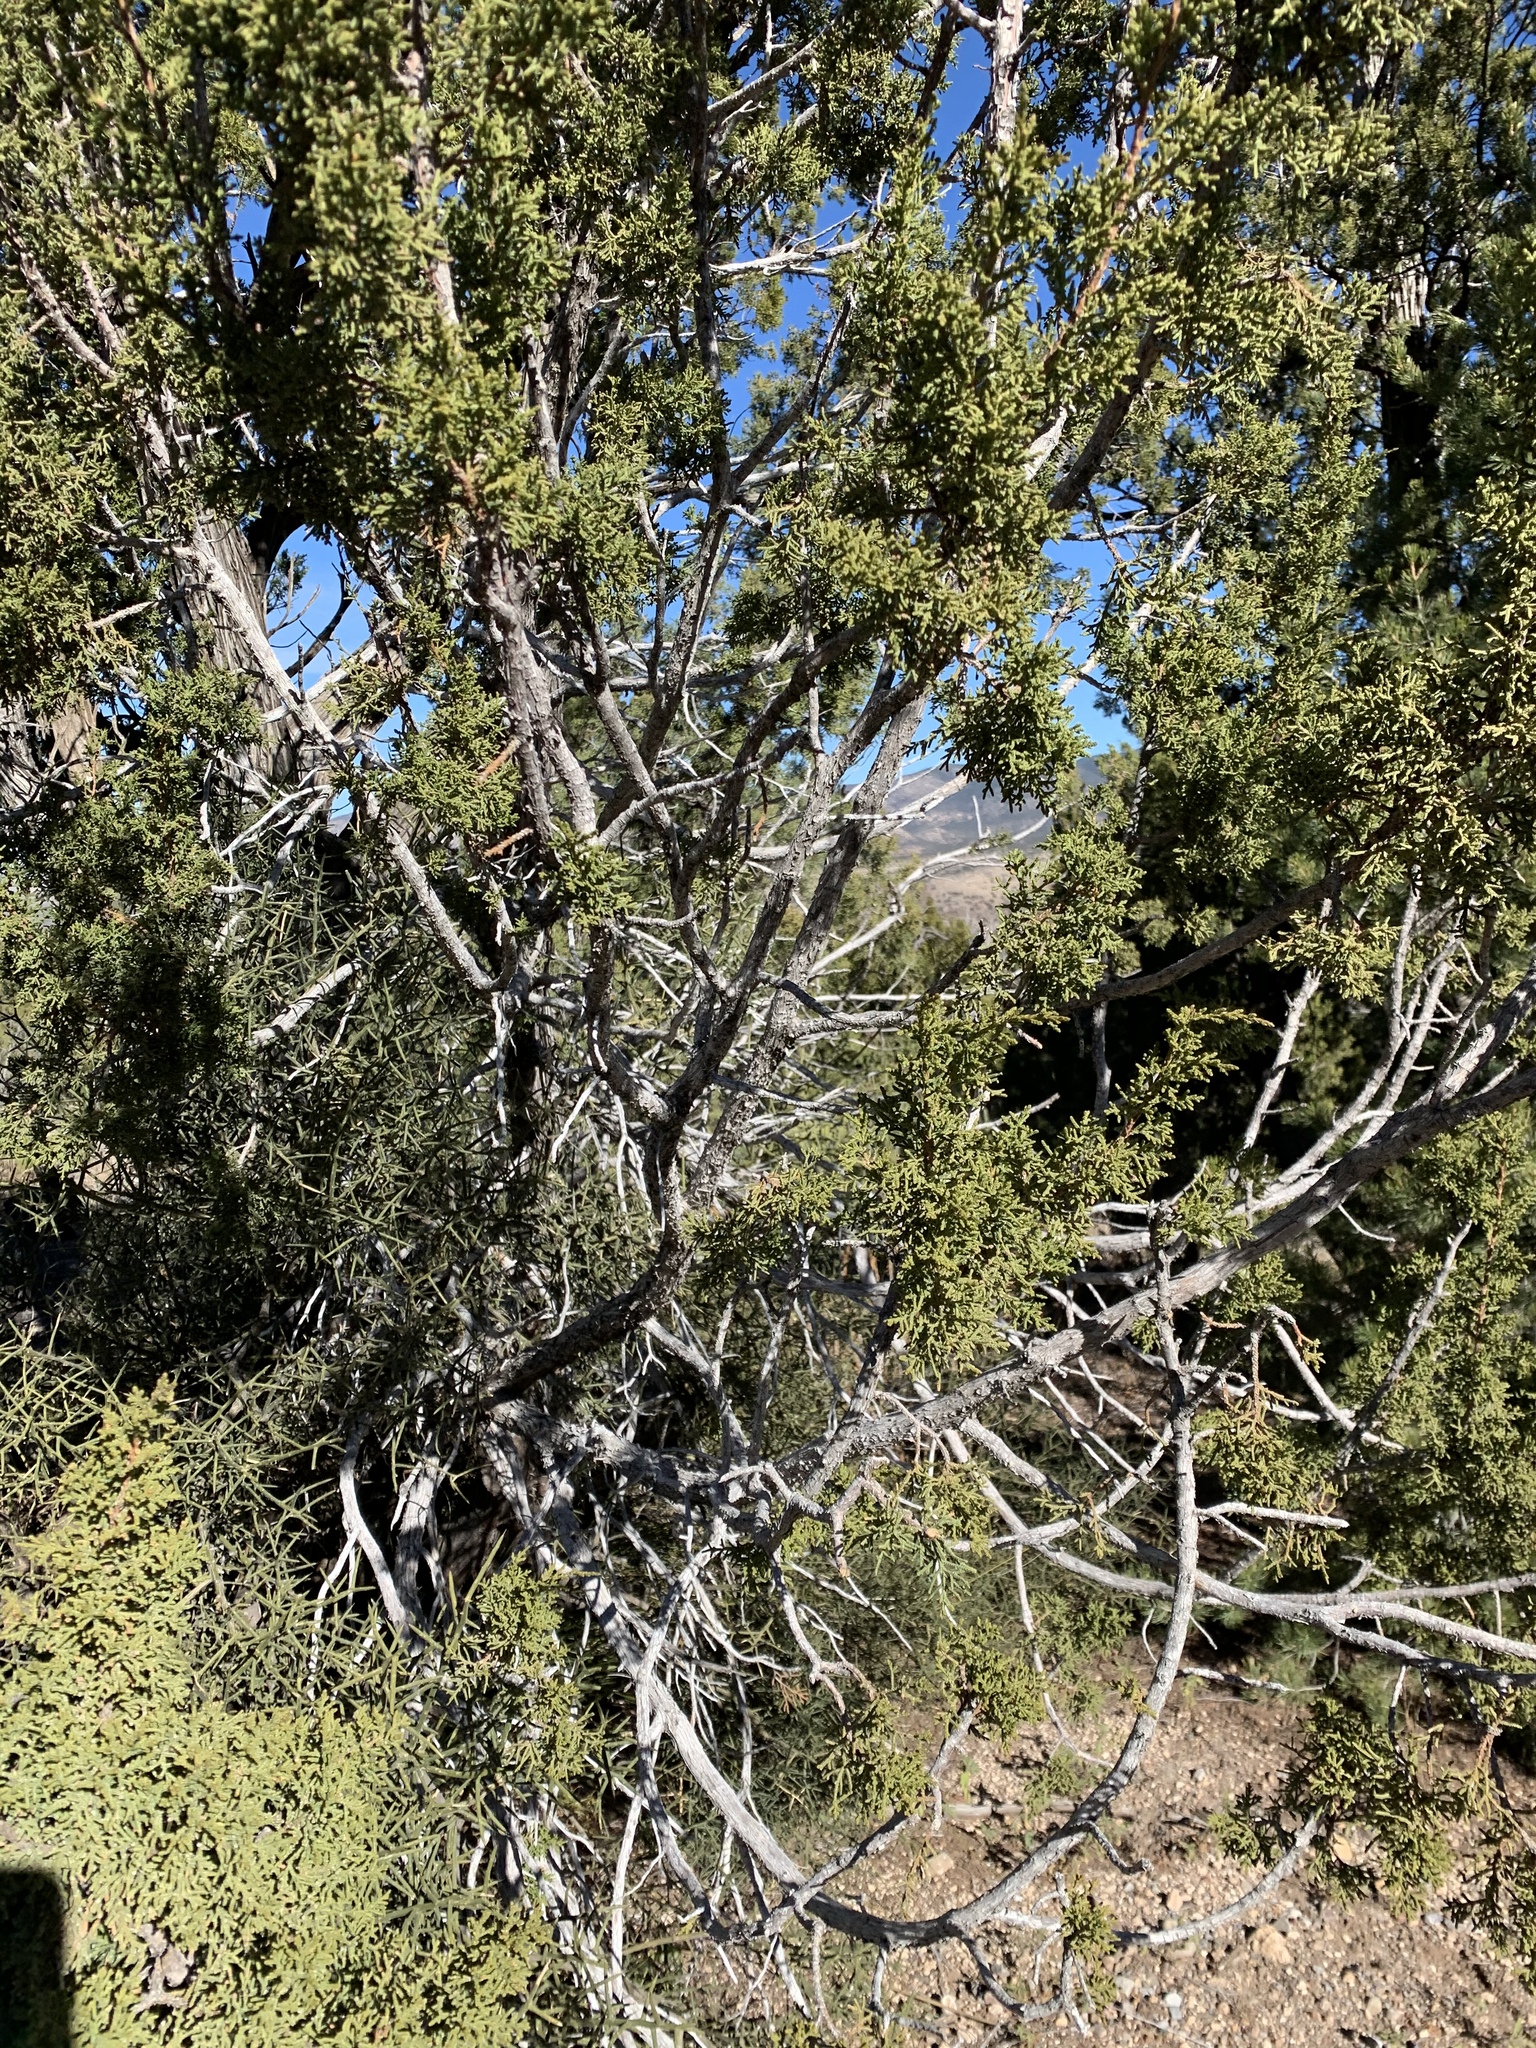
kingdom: Plantae
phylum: Tracheophyta
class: Pinopsida
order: Pinales
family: Cupressaceae
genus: Juniperus
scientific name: Juniperus monosperma
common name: One-seed juniper
